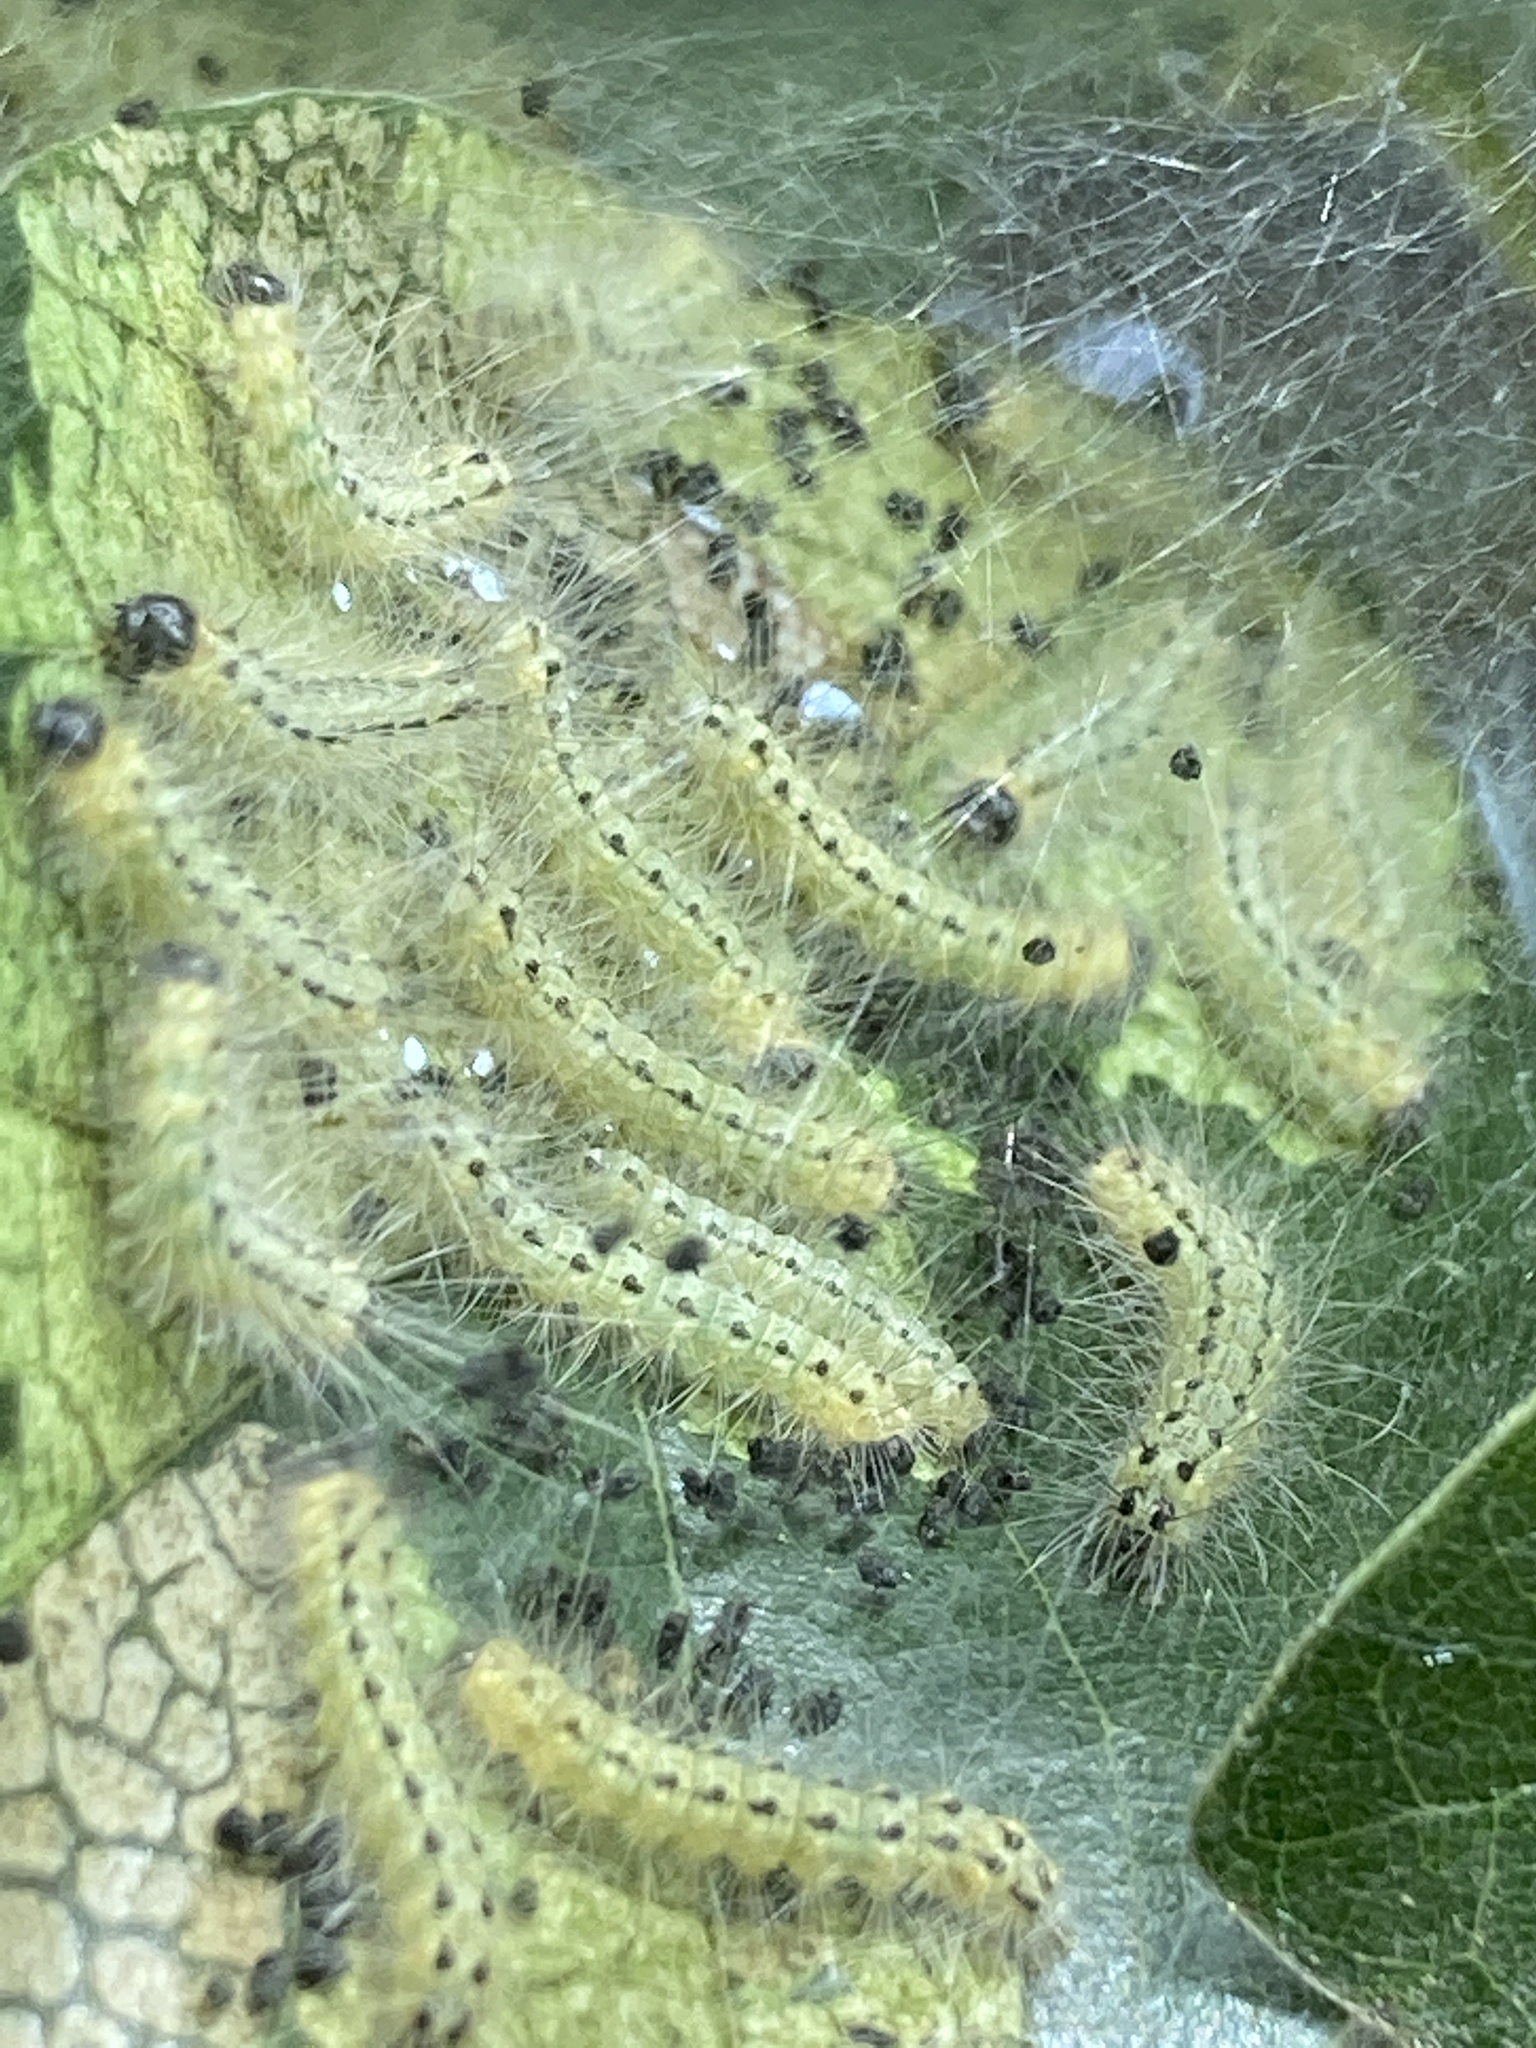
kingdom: Animalia
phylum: Arthropoda
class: Insecta
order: Lepidoptera
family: Erebidae
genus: Hyphantria
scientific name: Hyphantria cunea
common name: American white moth
